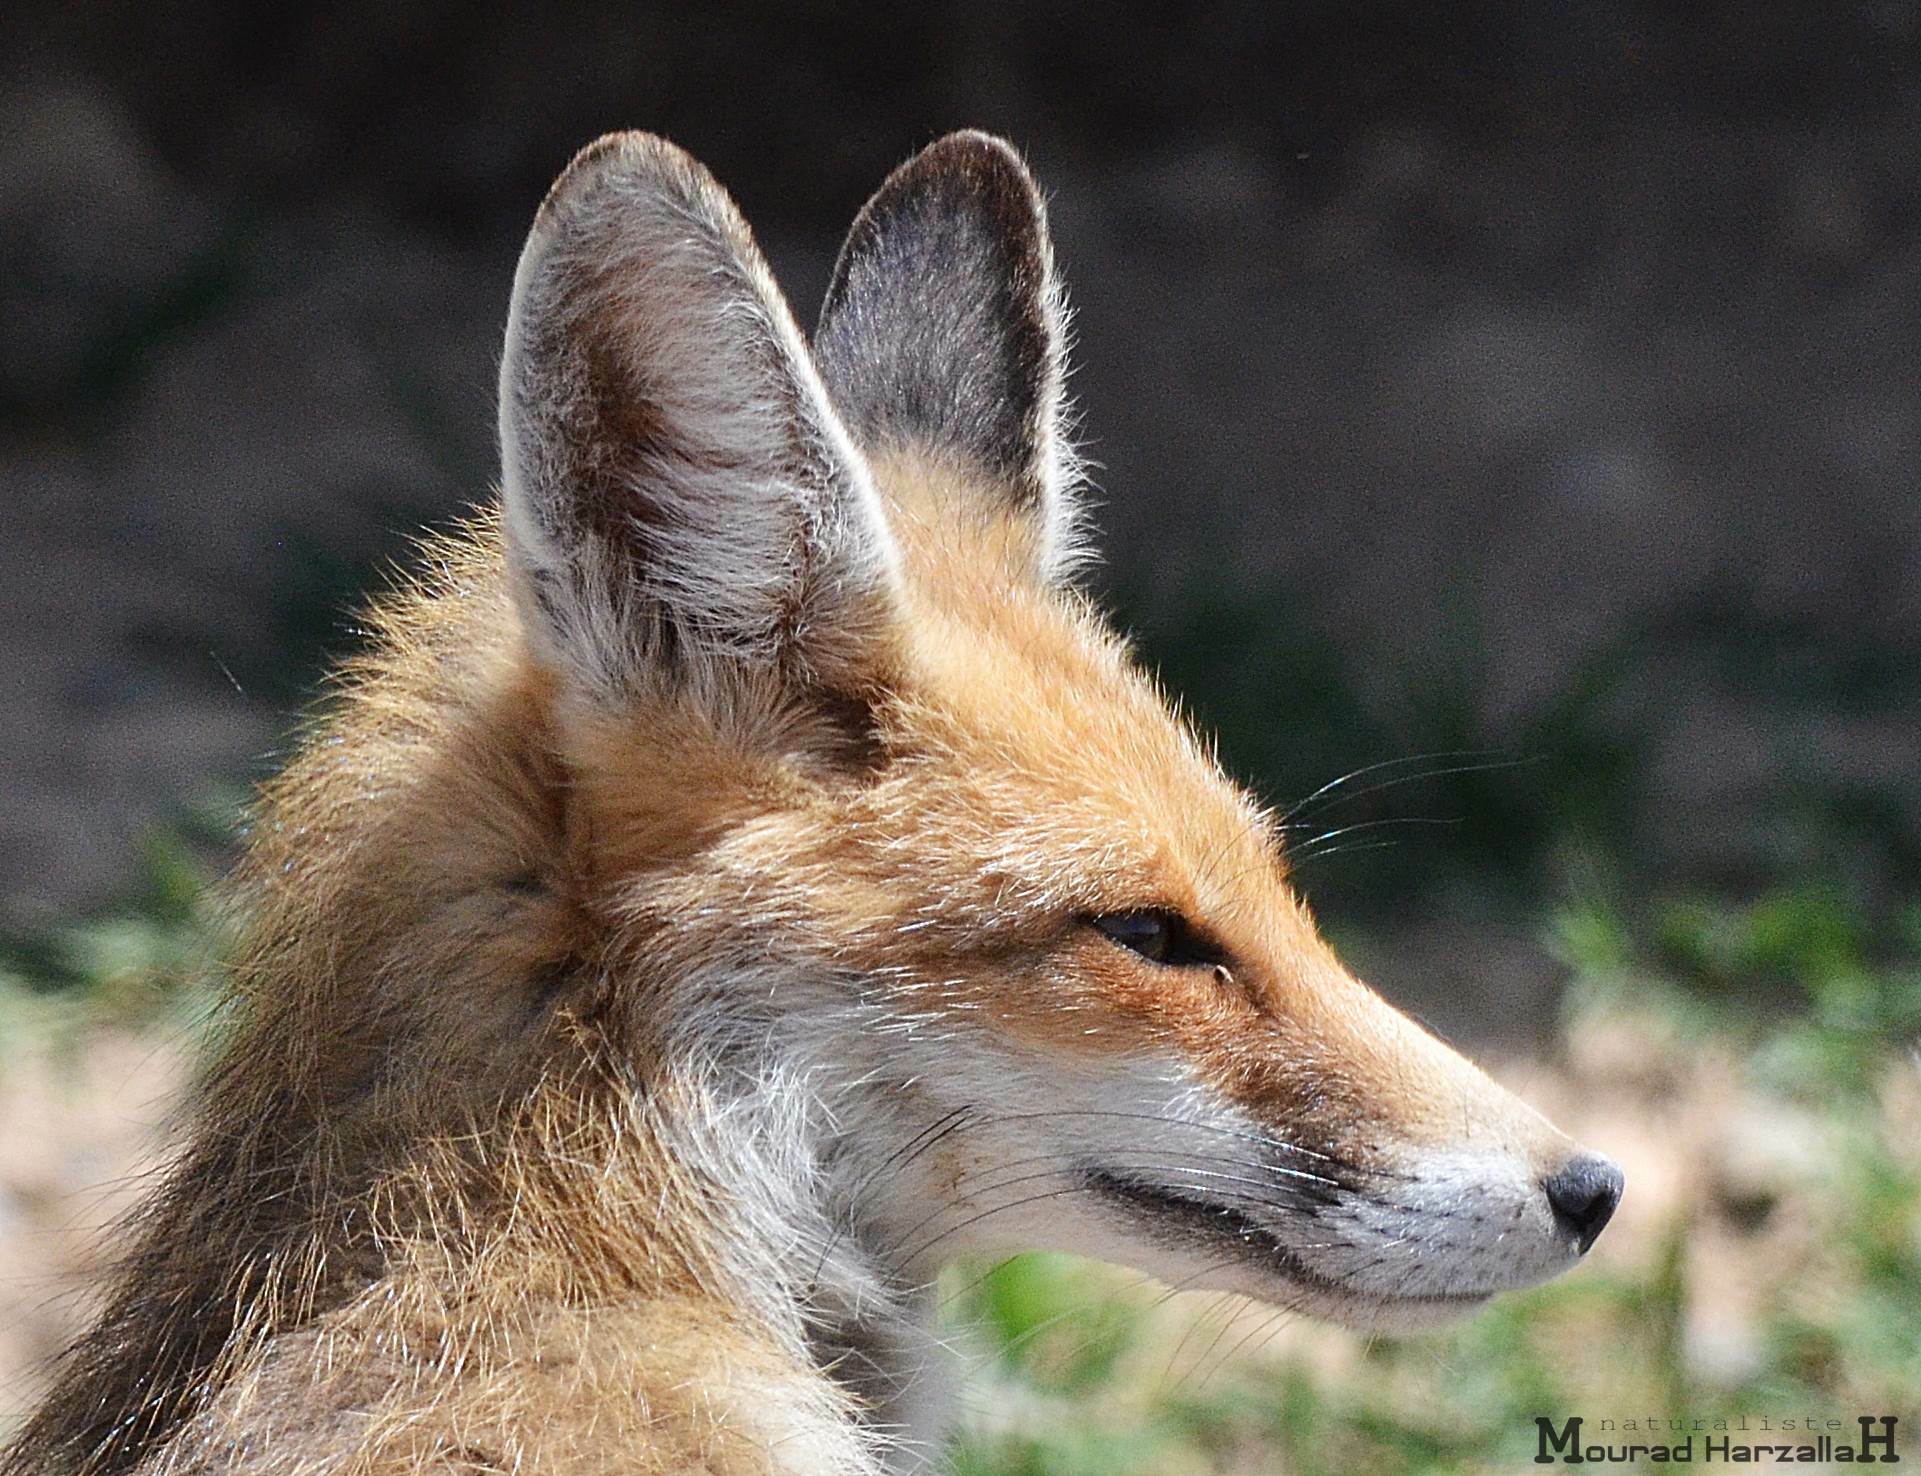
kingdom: Animalia
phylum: Chordata
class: Mammalia
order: Carnivora
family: Canidae
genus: Vulpes
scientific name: Vulpes vulpes
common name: Red fox
